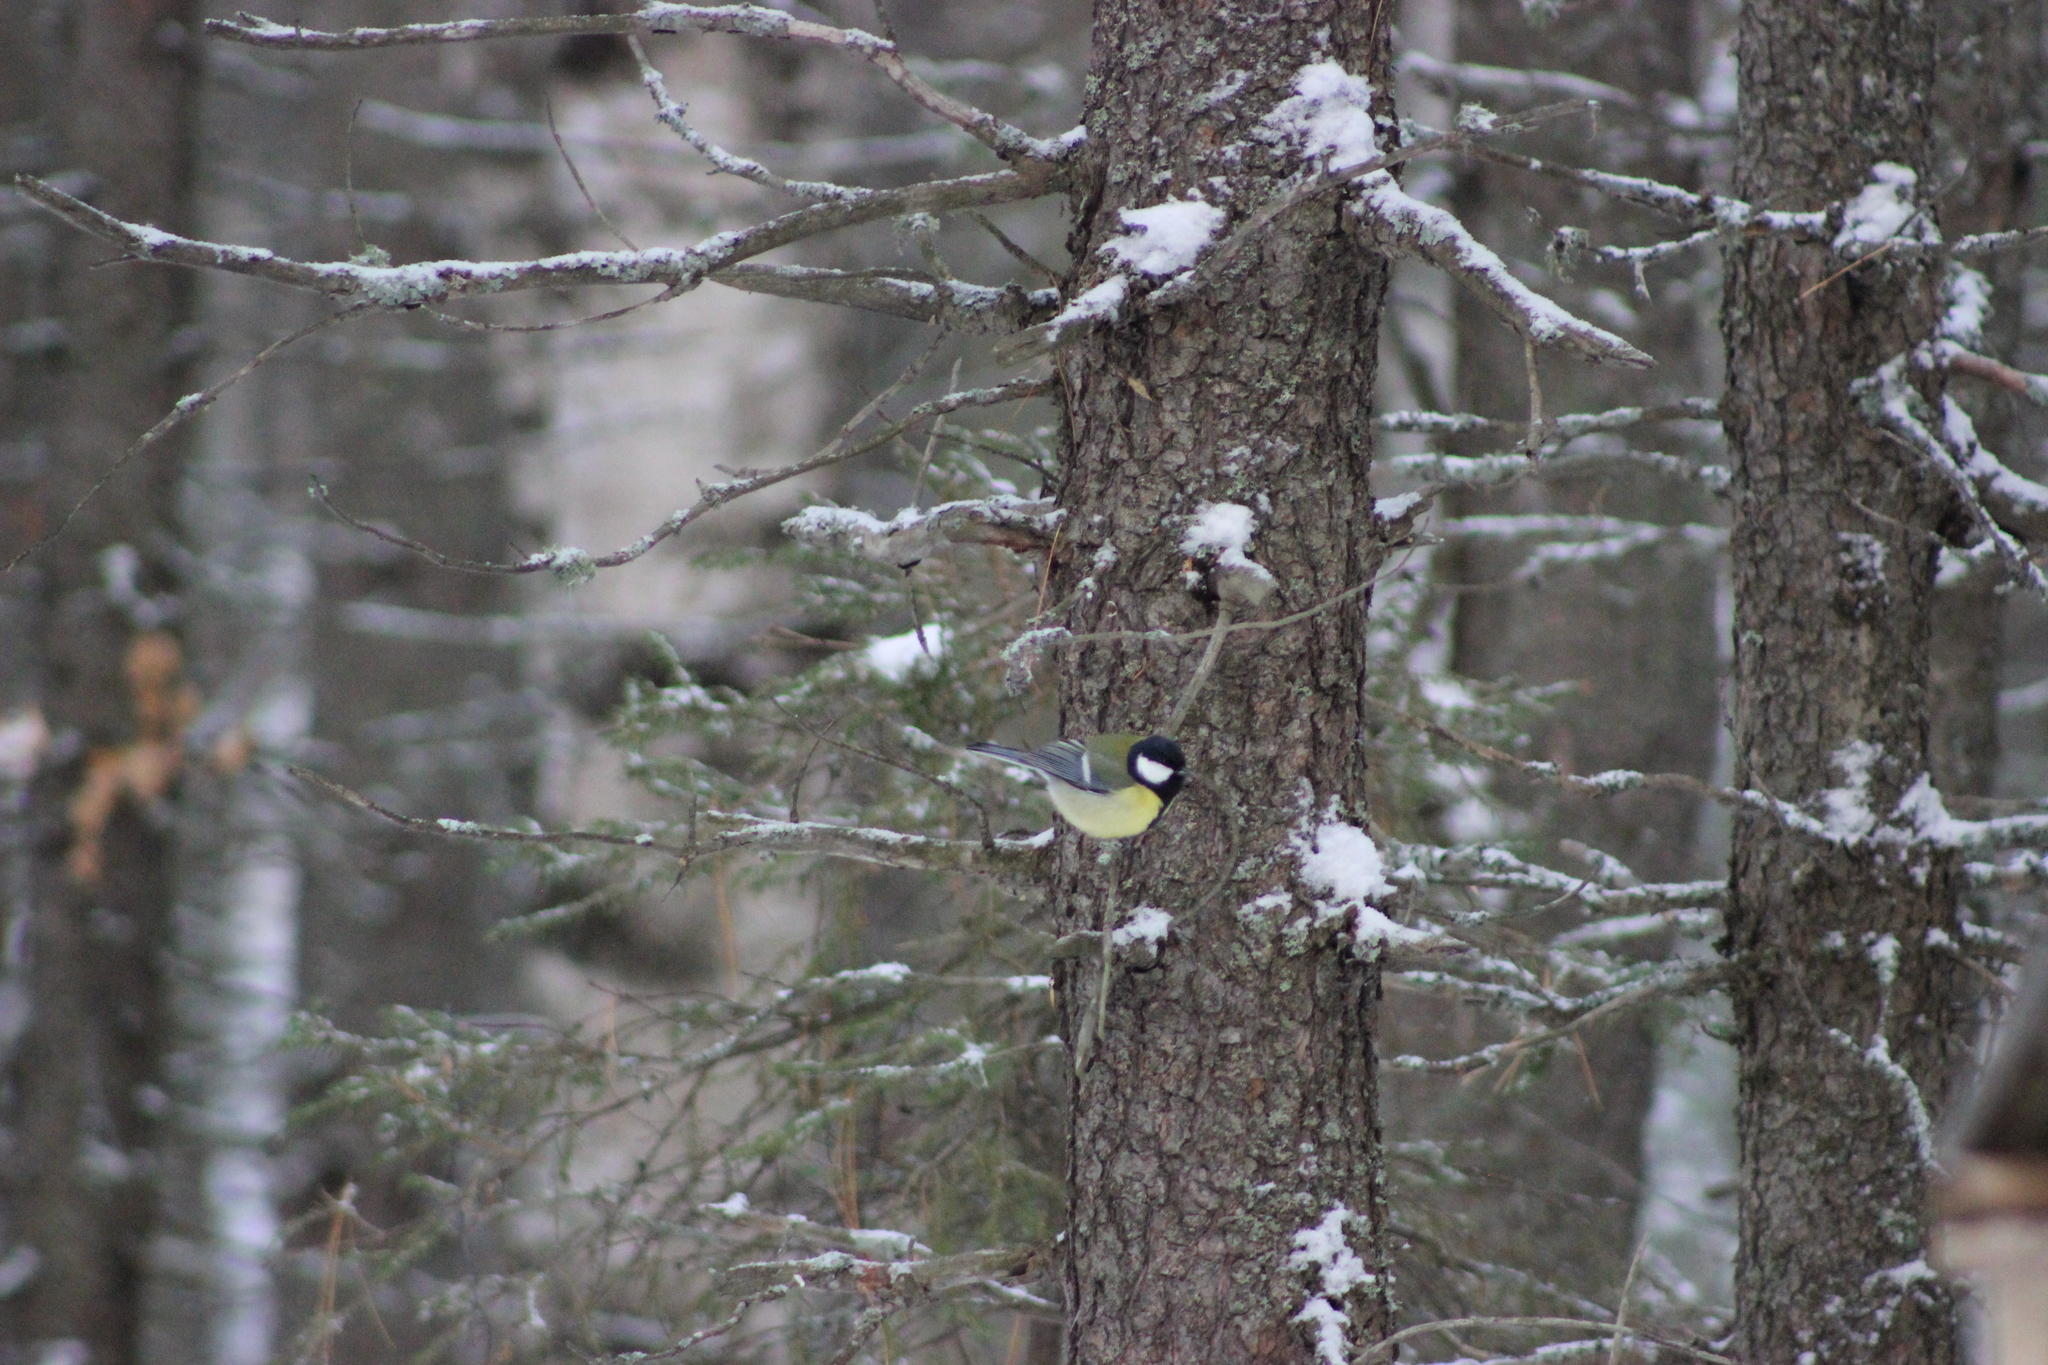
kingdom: Animalia
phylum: Chordata
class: Aves
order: Passeriformes
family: Paridae
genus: Parus
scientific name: Parus major
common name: Great tit
